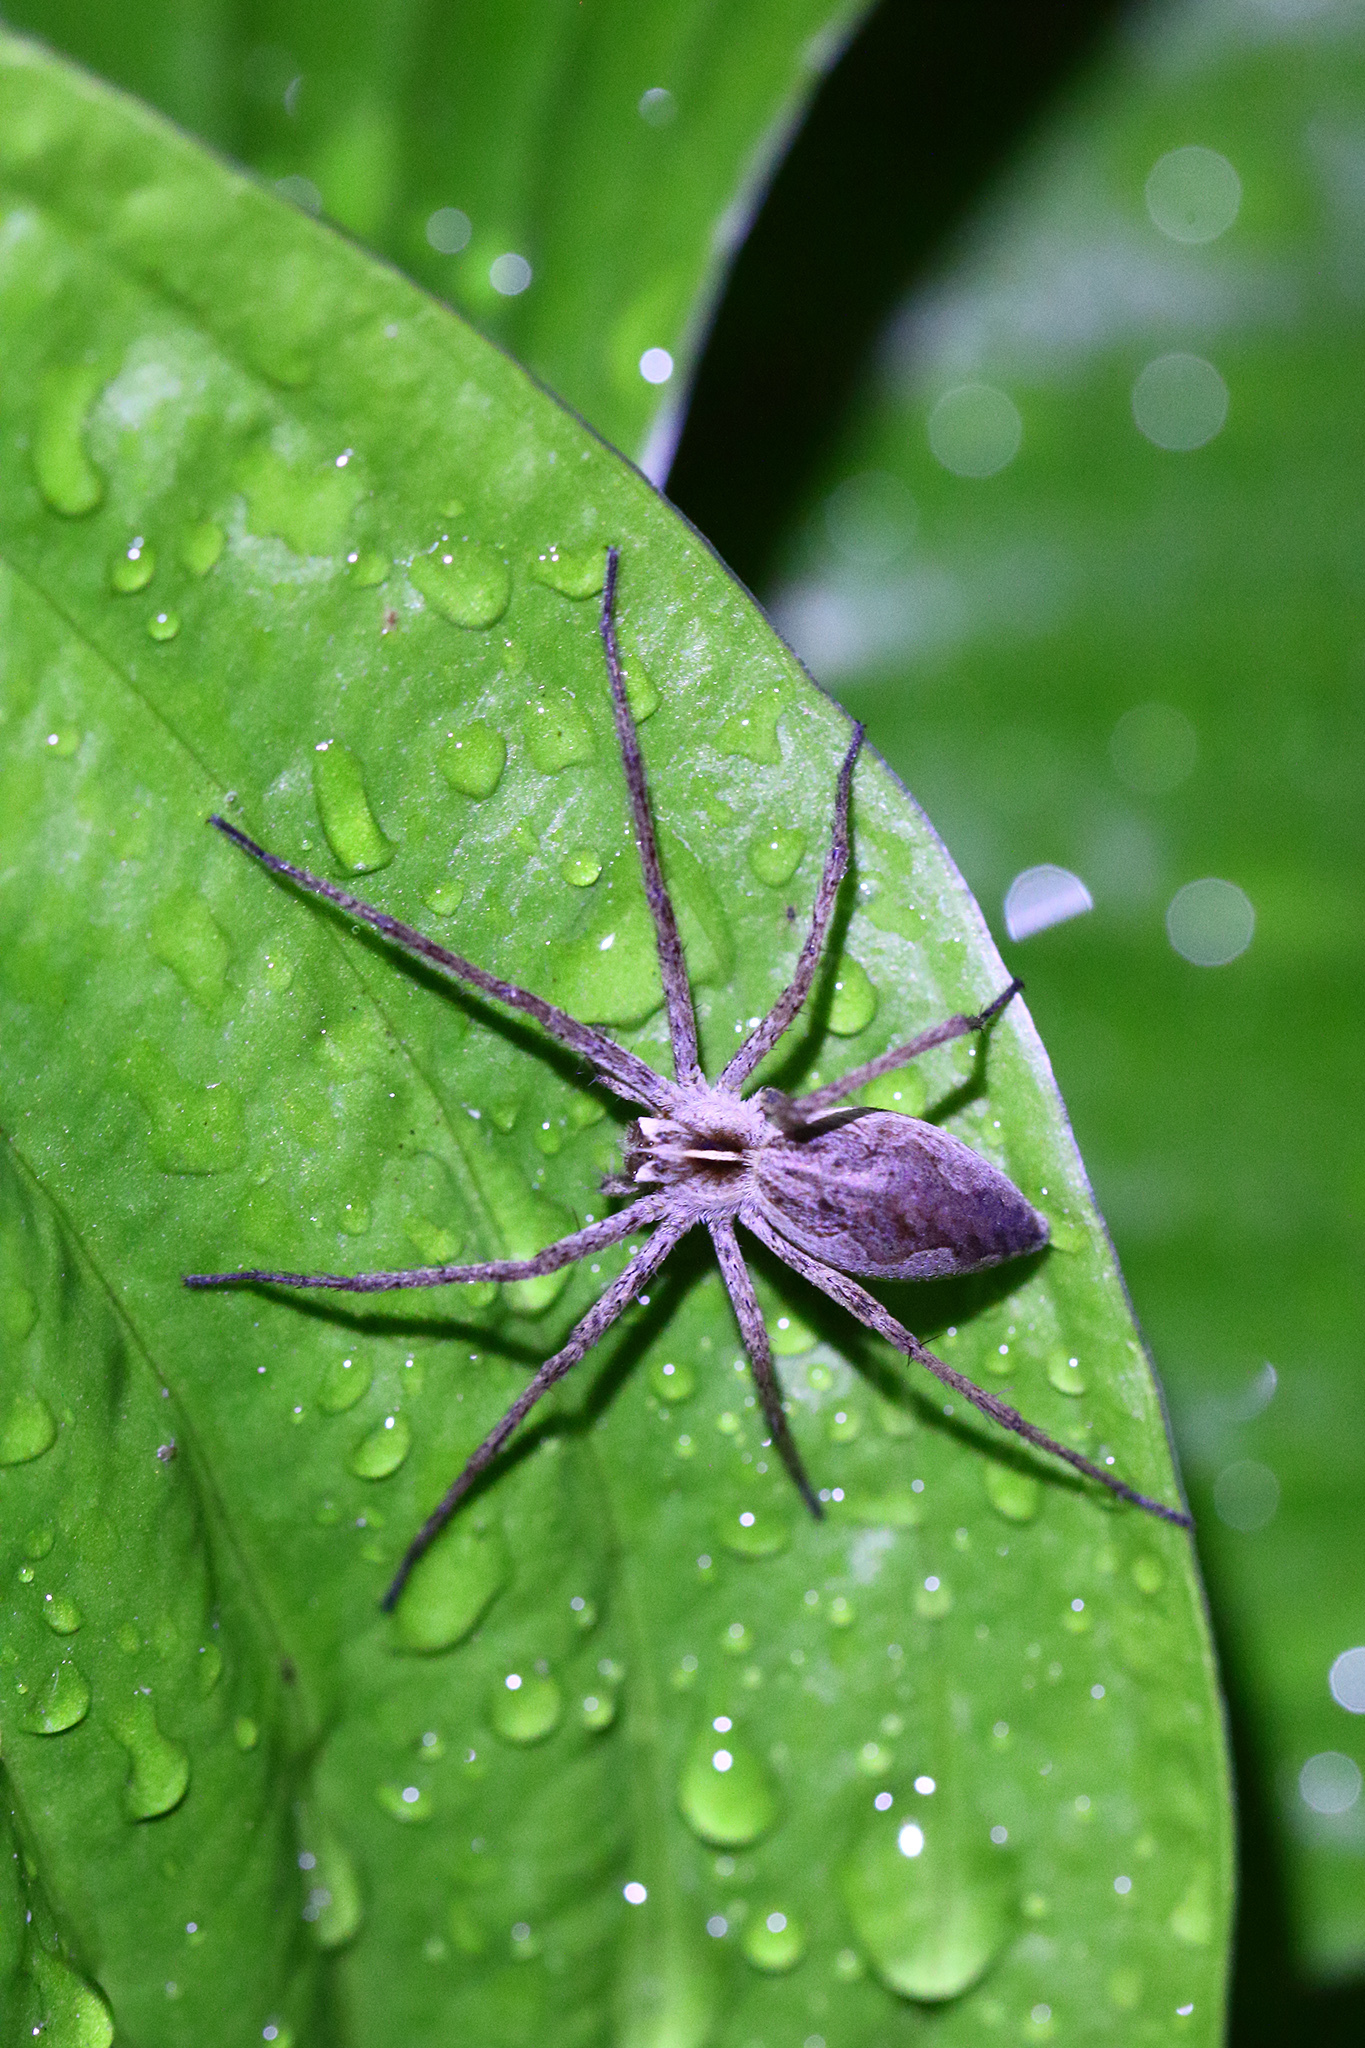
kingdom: Animalia
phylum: Arthropoda
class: Arachnida
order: Araneae
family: Pisauridae
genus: Pisaura
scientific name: Pisaura mirabilis
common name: Tent spider
